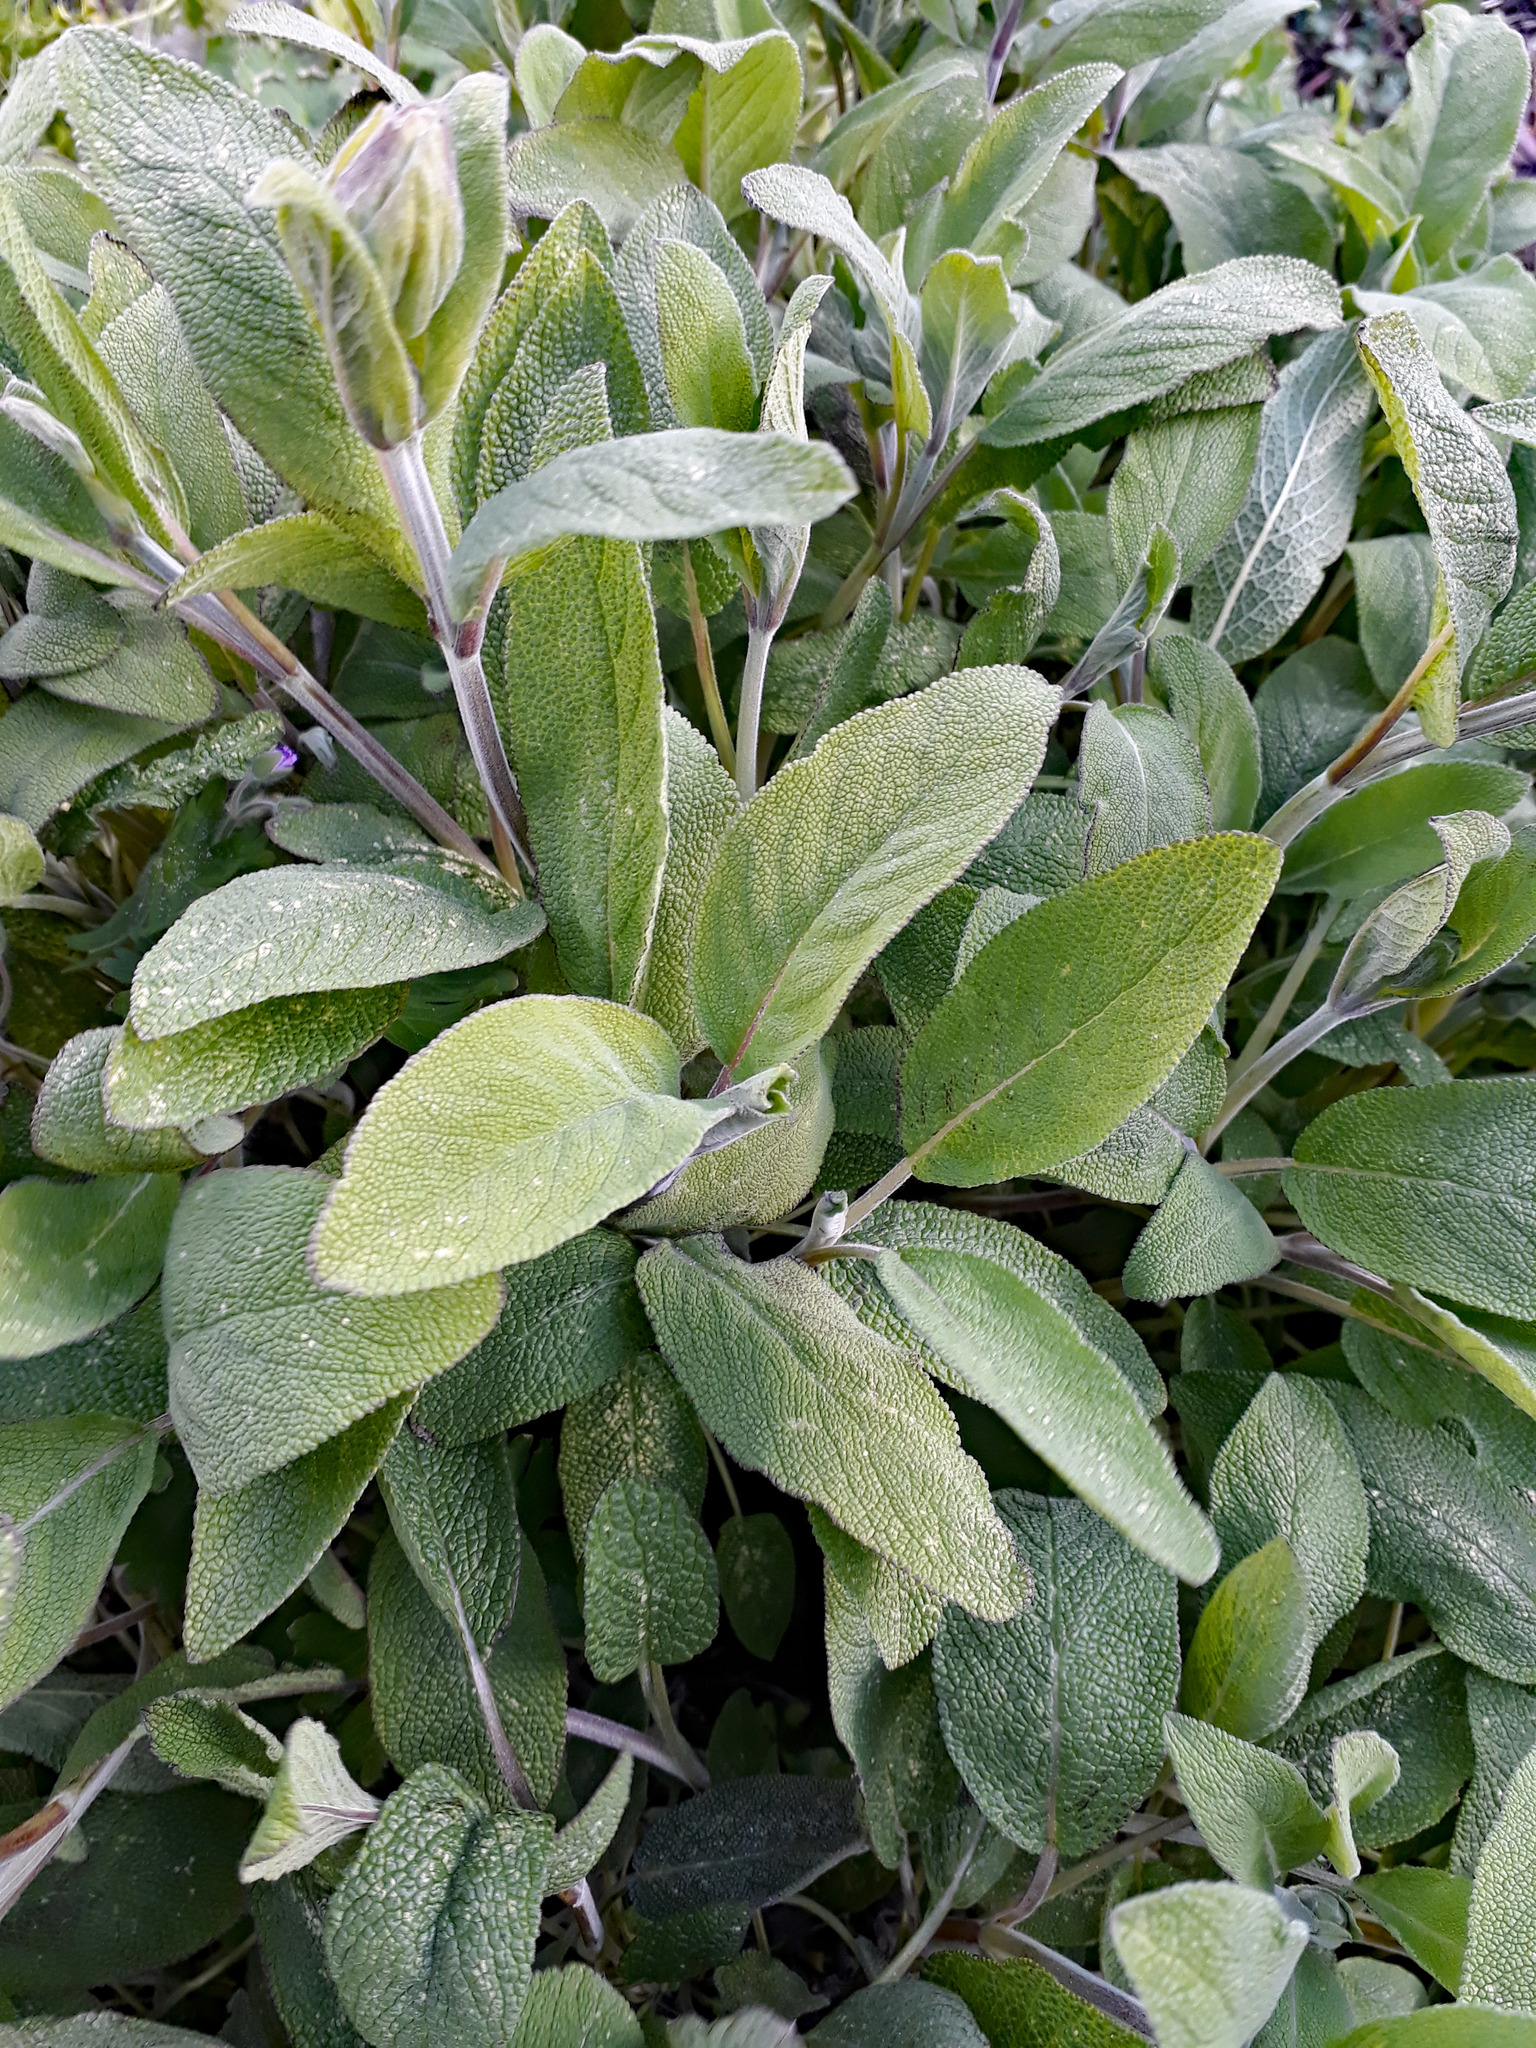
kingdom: Plantae
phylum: Tracheophyta
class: Magnoliopsida
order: Lamiales
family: Lamiaceae
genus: Salvia
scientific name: Salvia officinalis
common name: Sage
